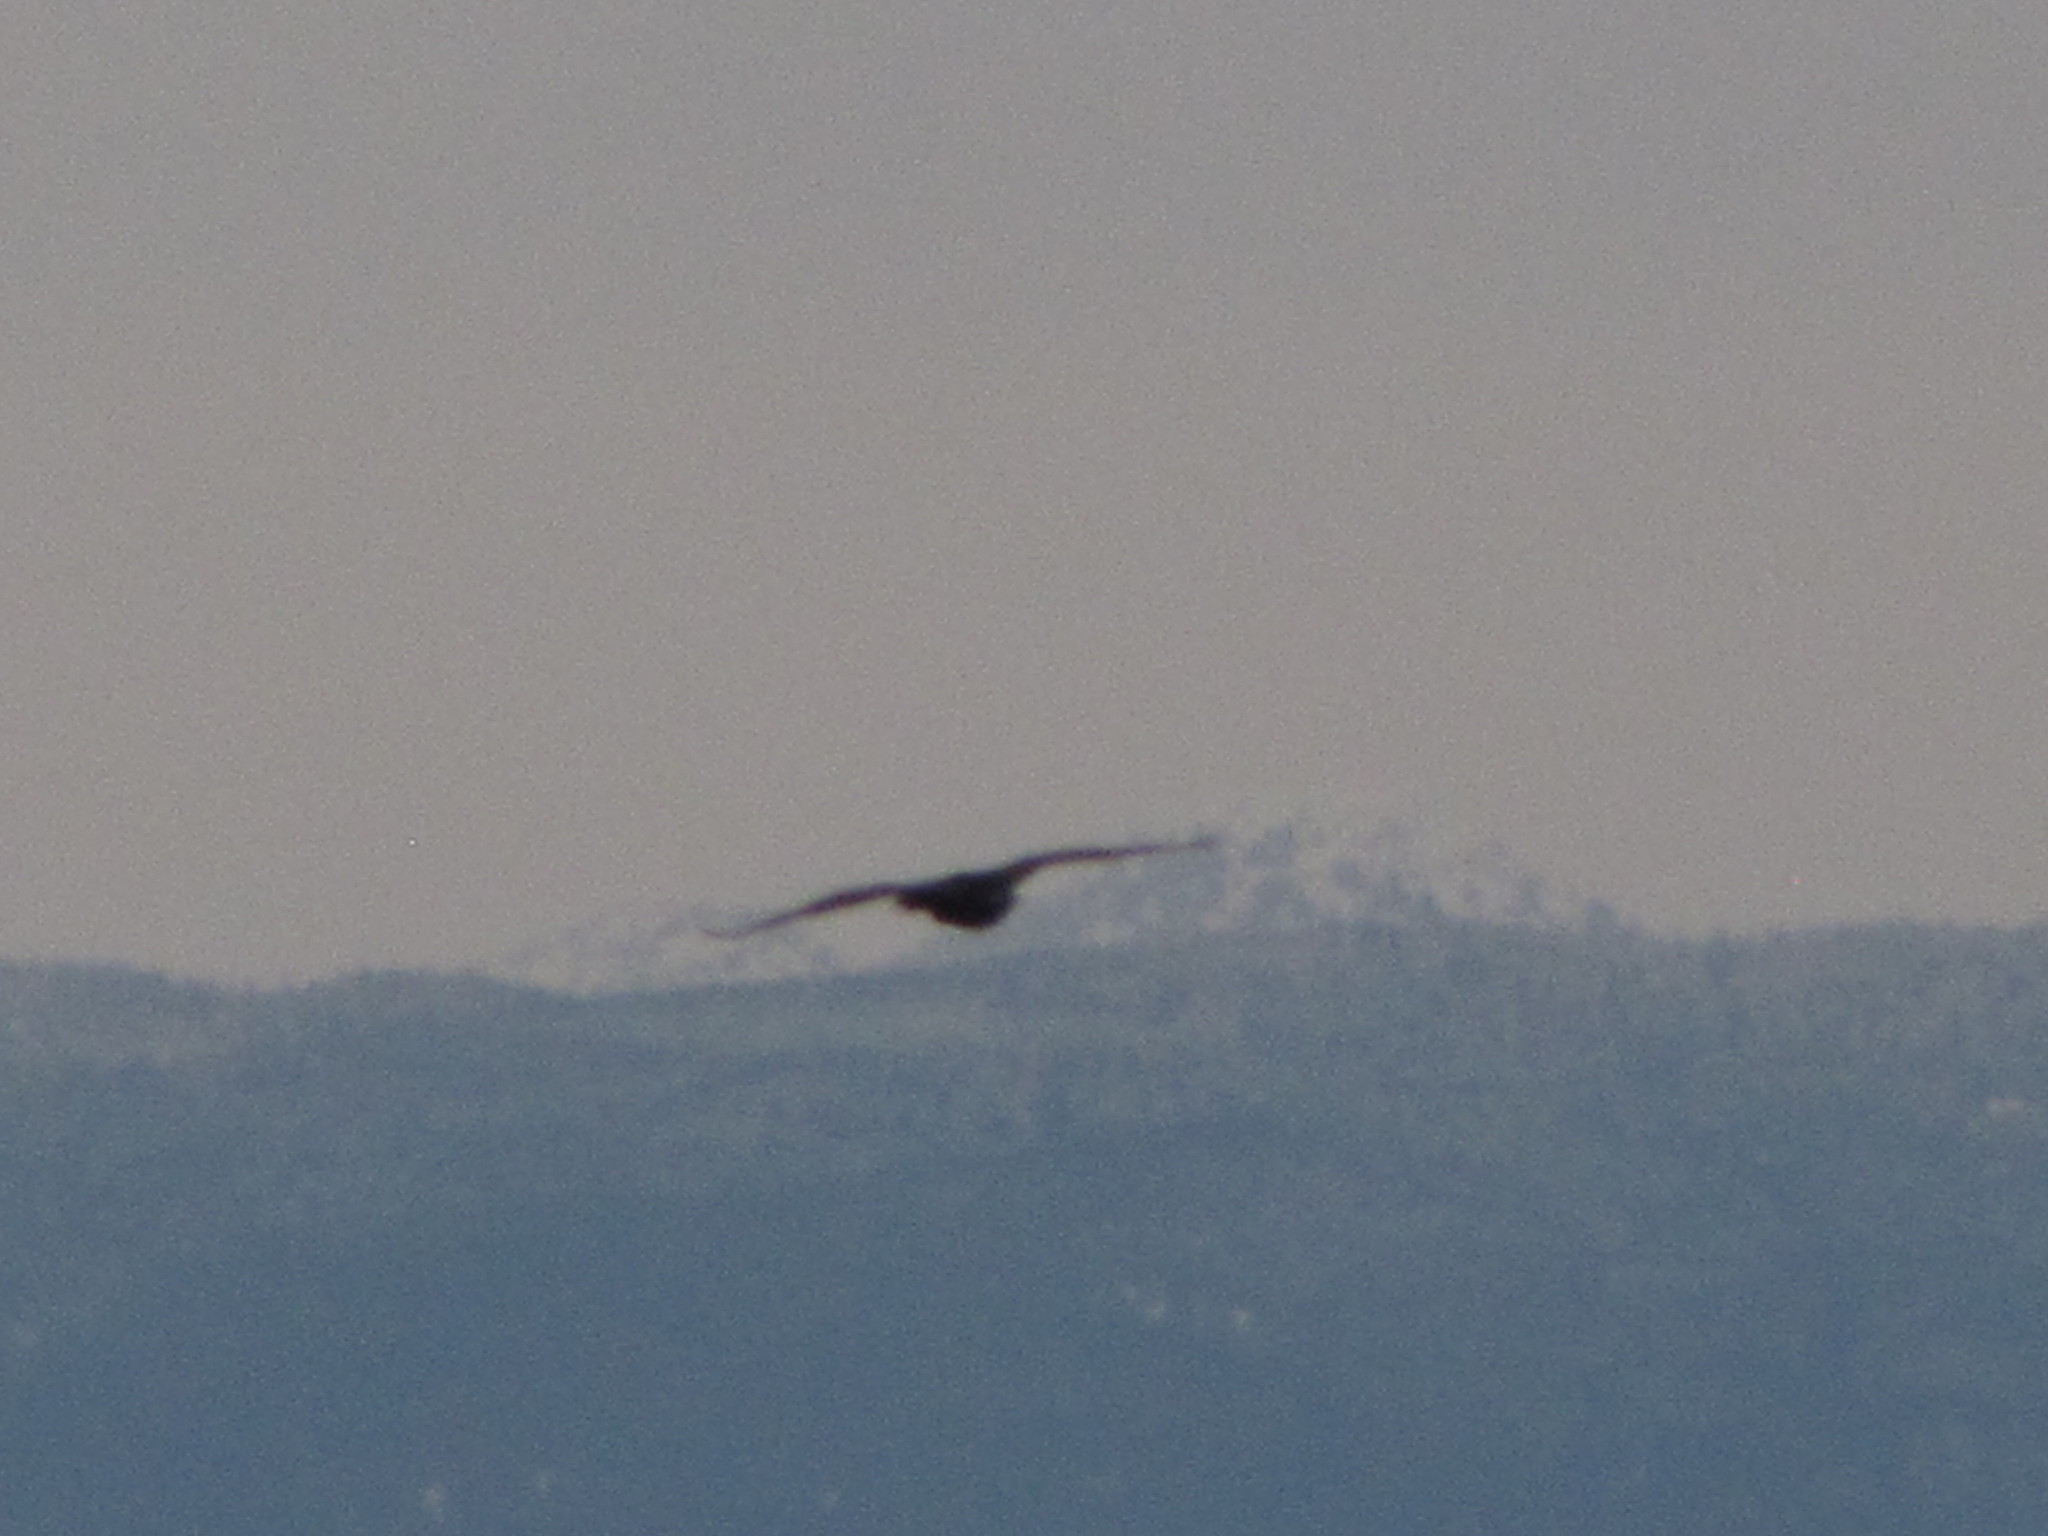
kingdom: Animalia
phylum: Chordata
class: Aves
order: Suliformes
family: Phalacrocoracidae
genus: Phalacrocorax
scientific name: Phalacrocorax auritus
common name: Double-crested cormorant
